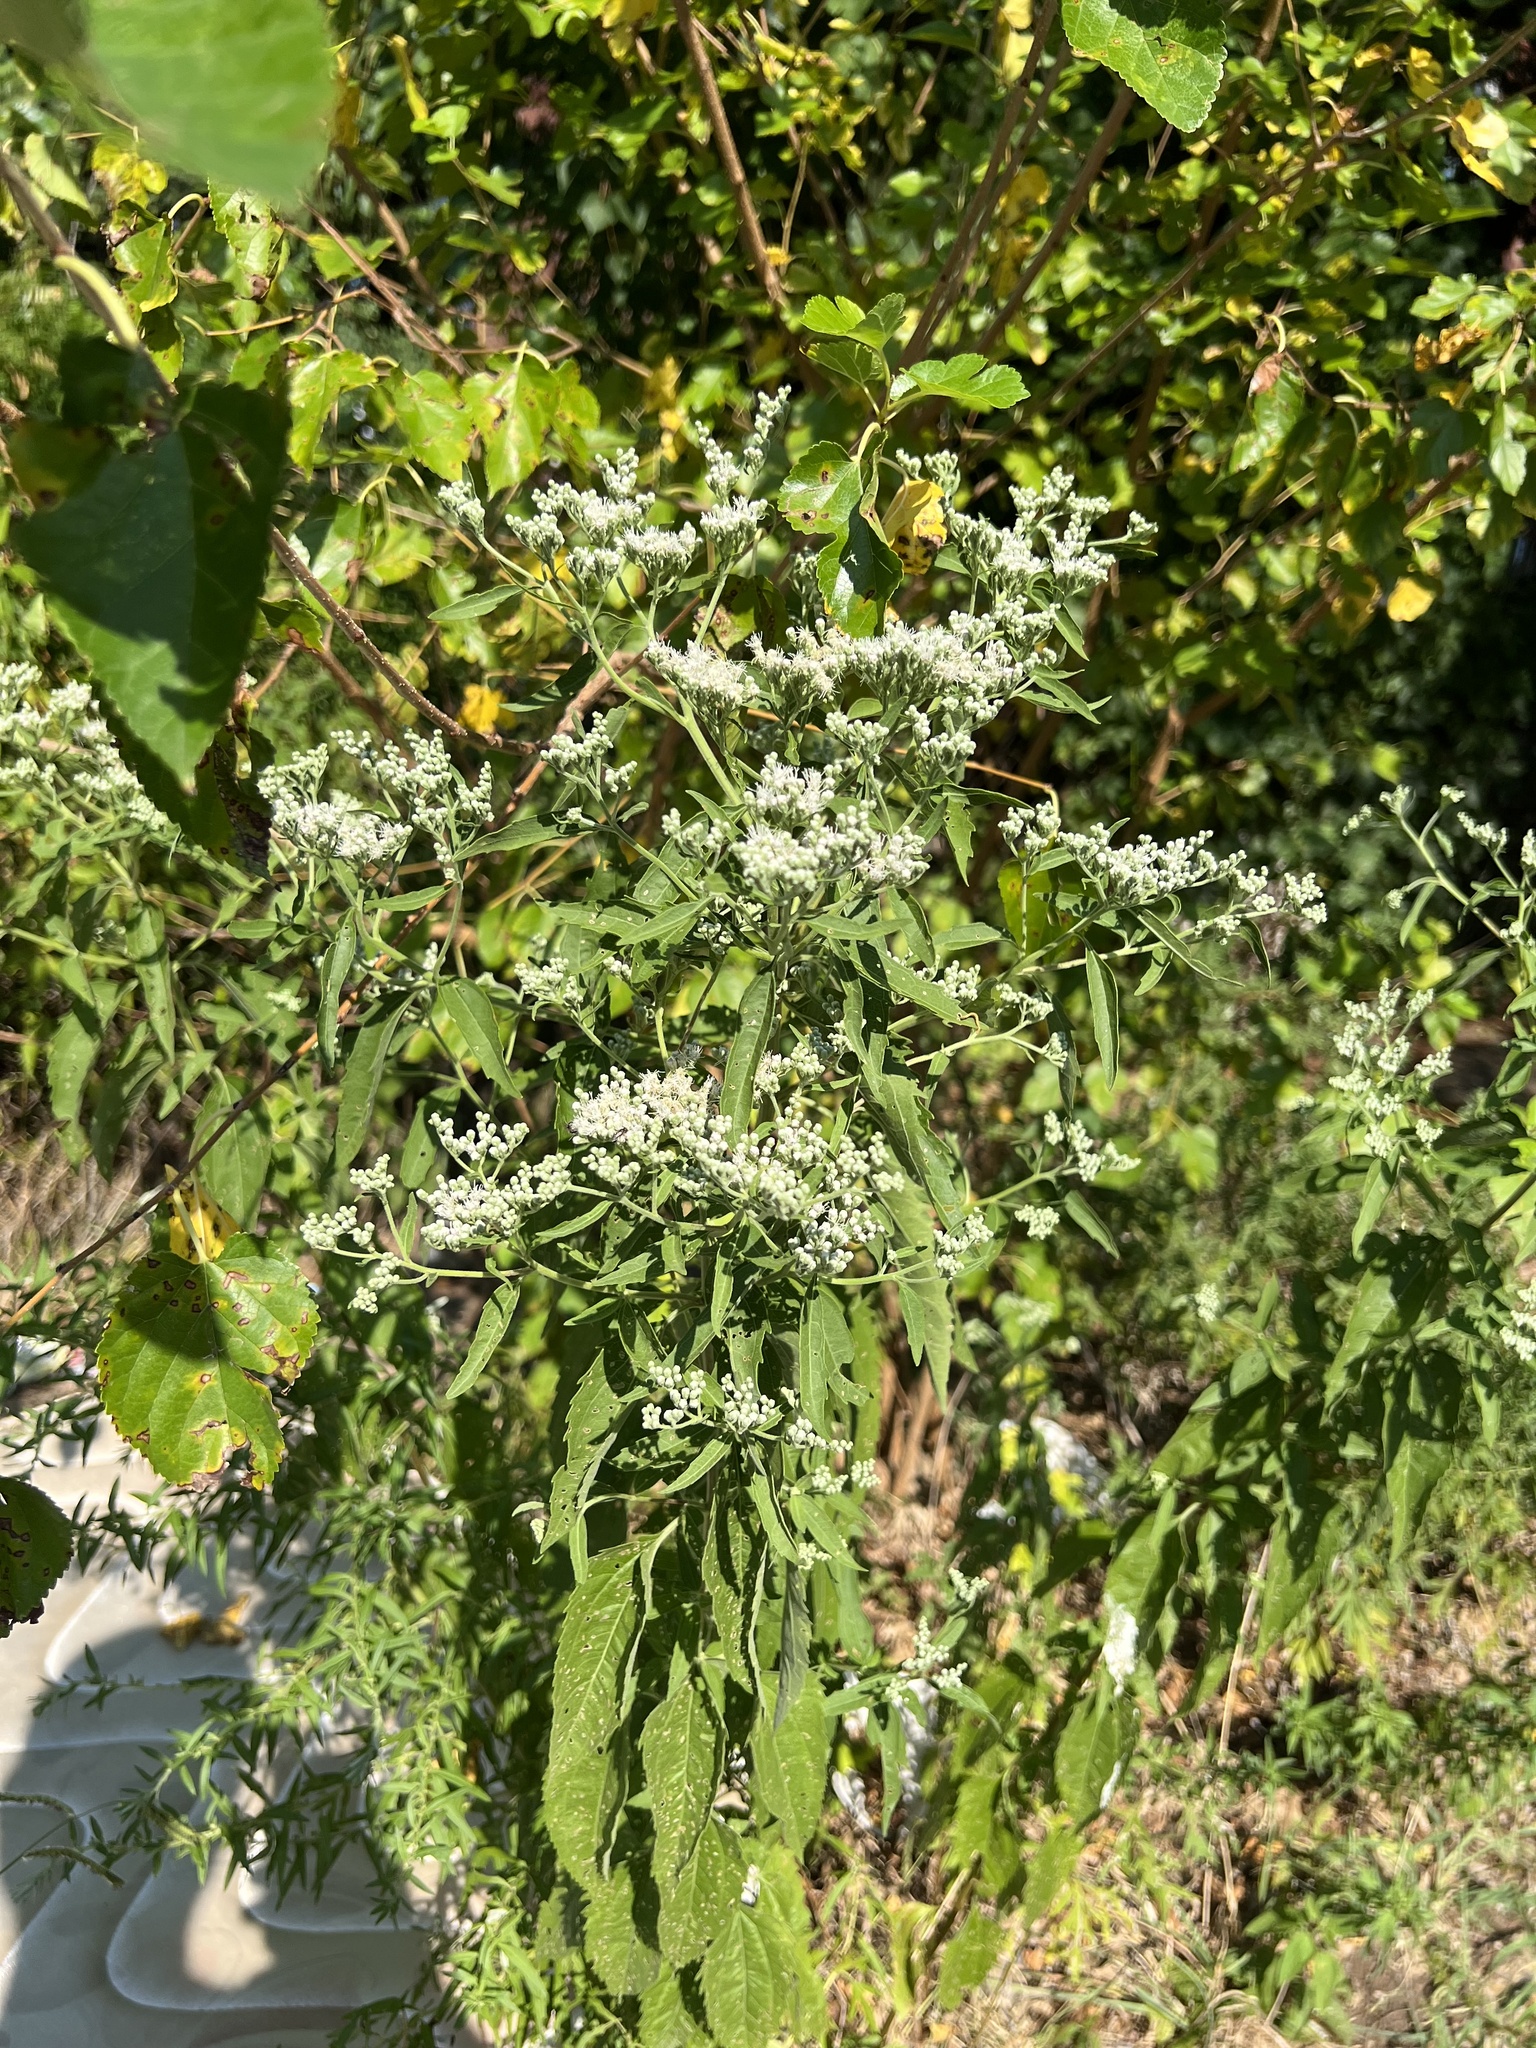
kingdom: Plantae
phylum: Tracheophyta
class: Magnoliopsida
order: Asterales
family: Asteraceae
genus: Eupatorium
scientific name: Eupatorium serotinum
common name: Late boneset
